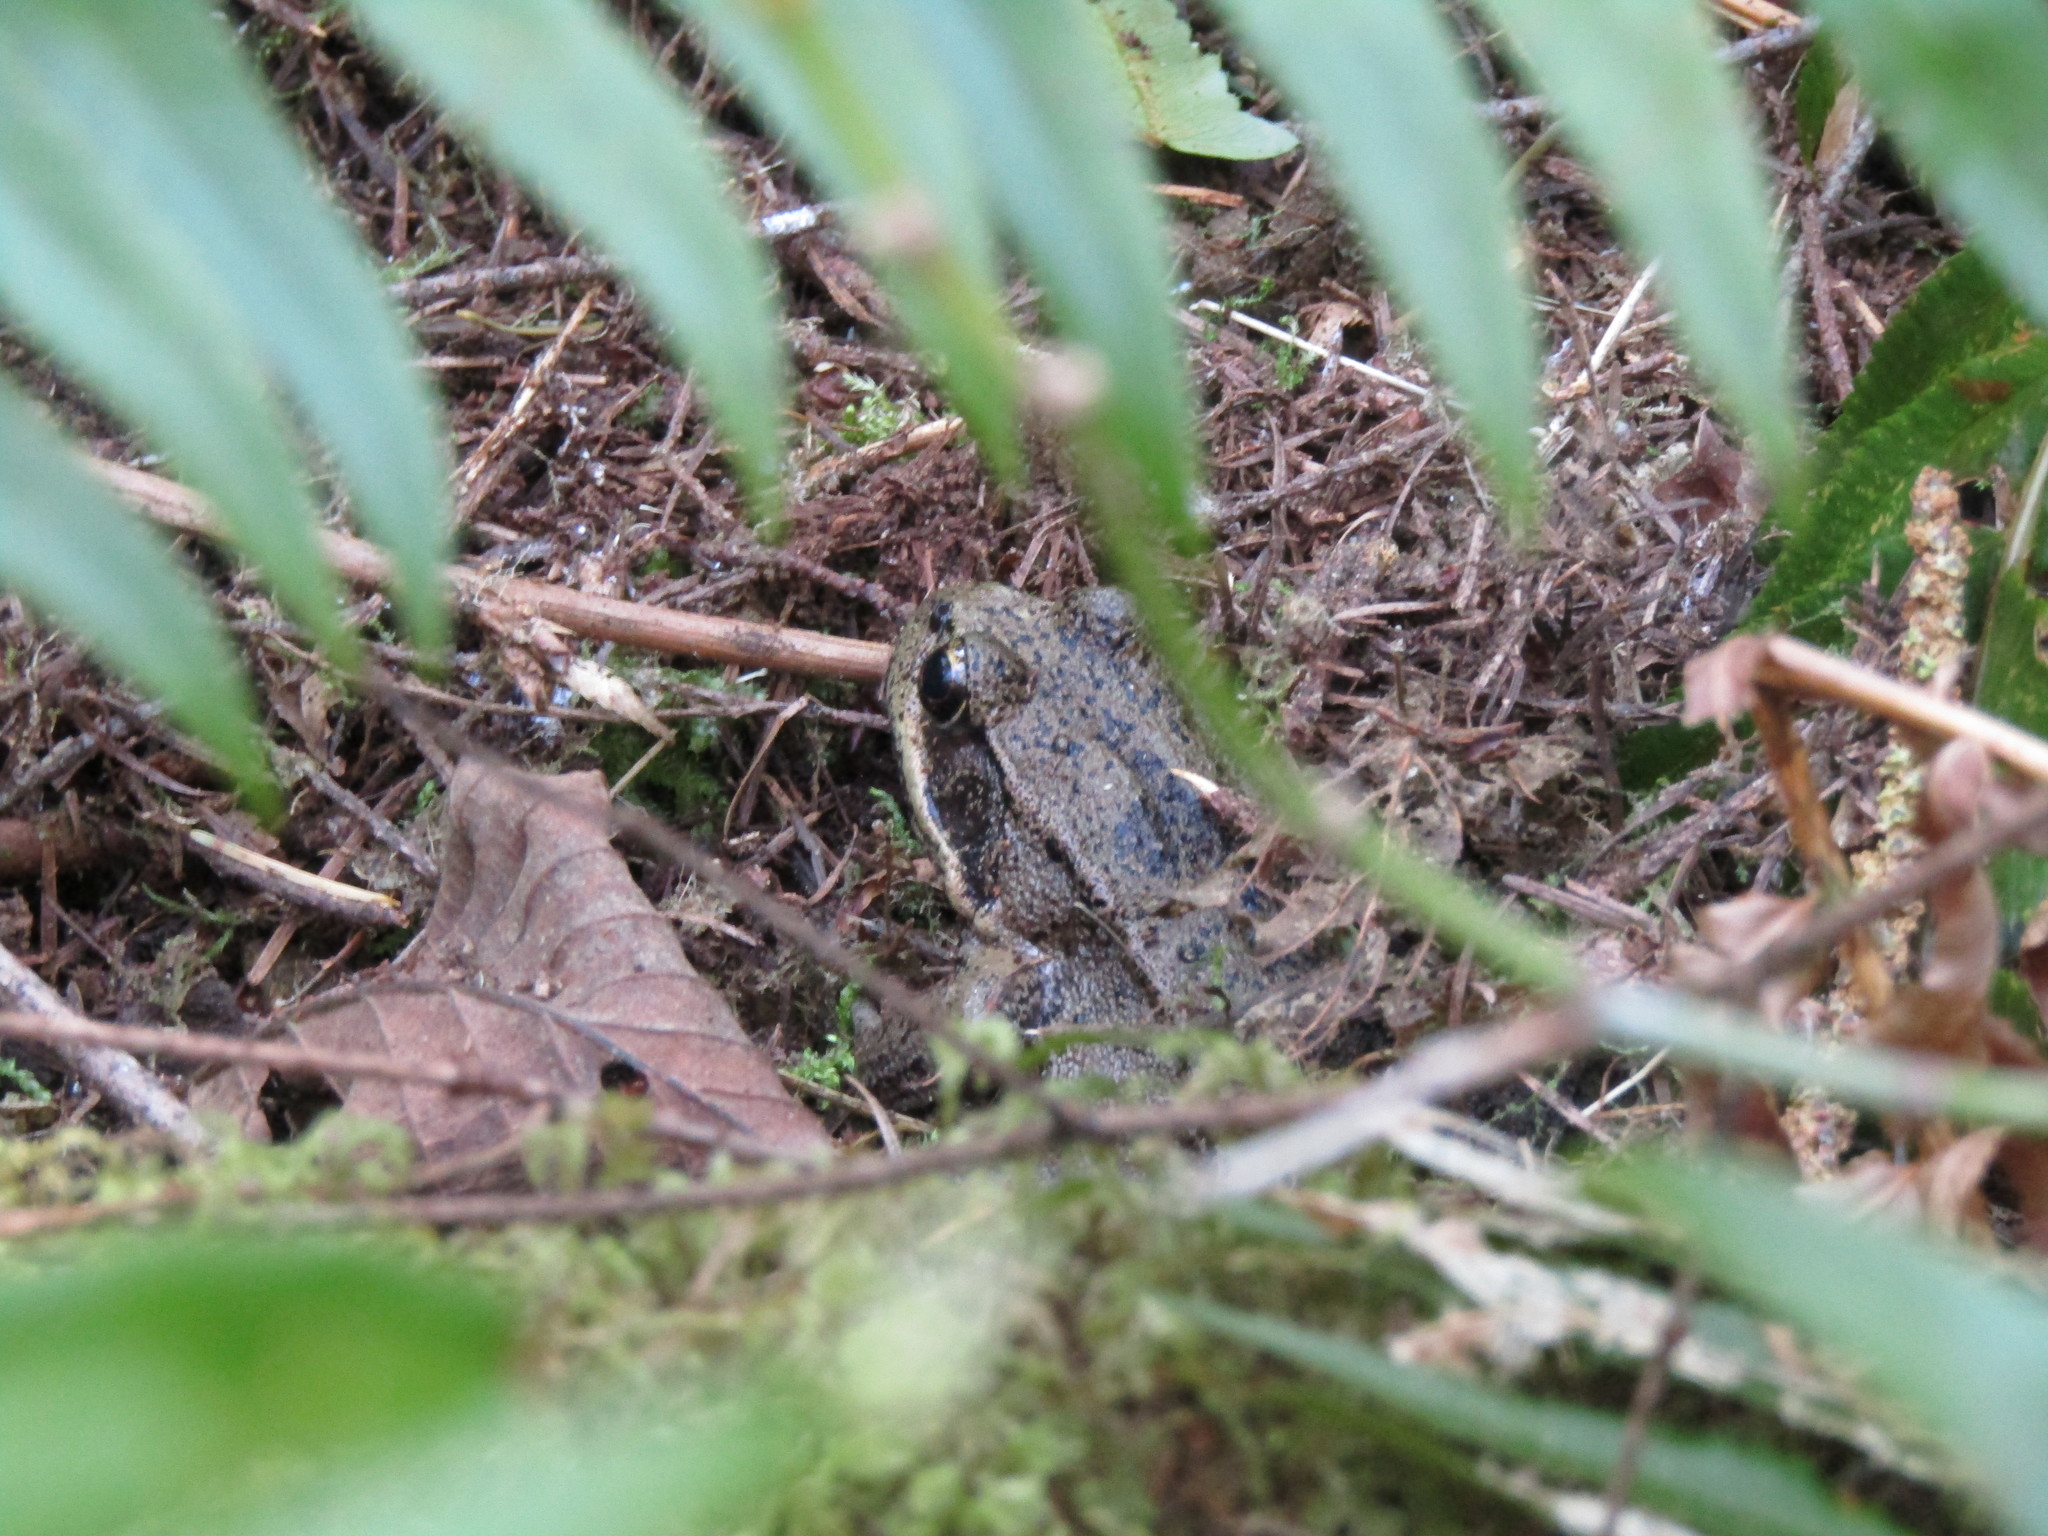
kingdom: Animalia
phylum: Chordata
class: Amphibia
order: Anura
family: Ranidae
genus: Rana
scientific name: Rana aurora
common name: Red-legged frog
